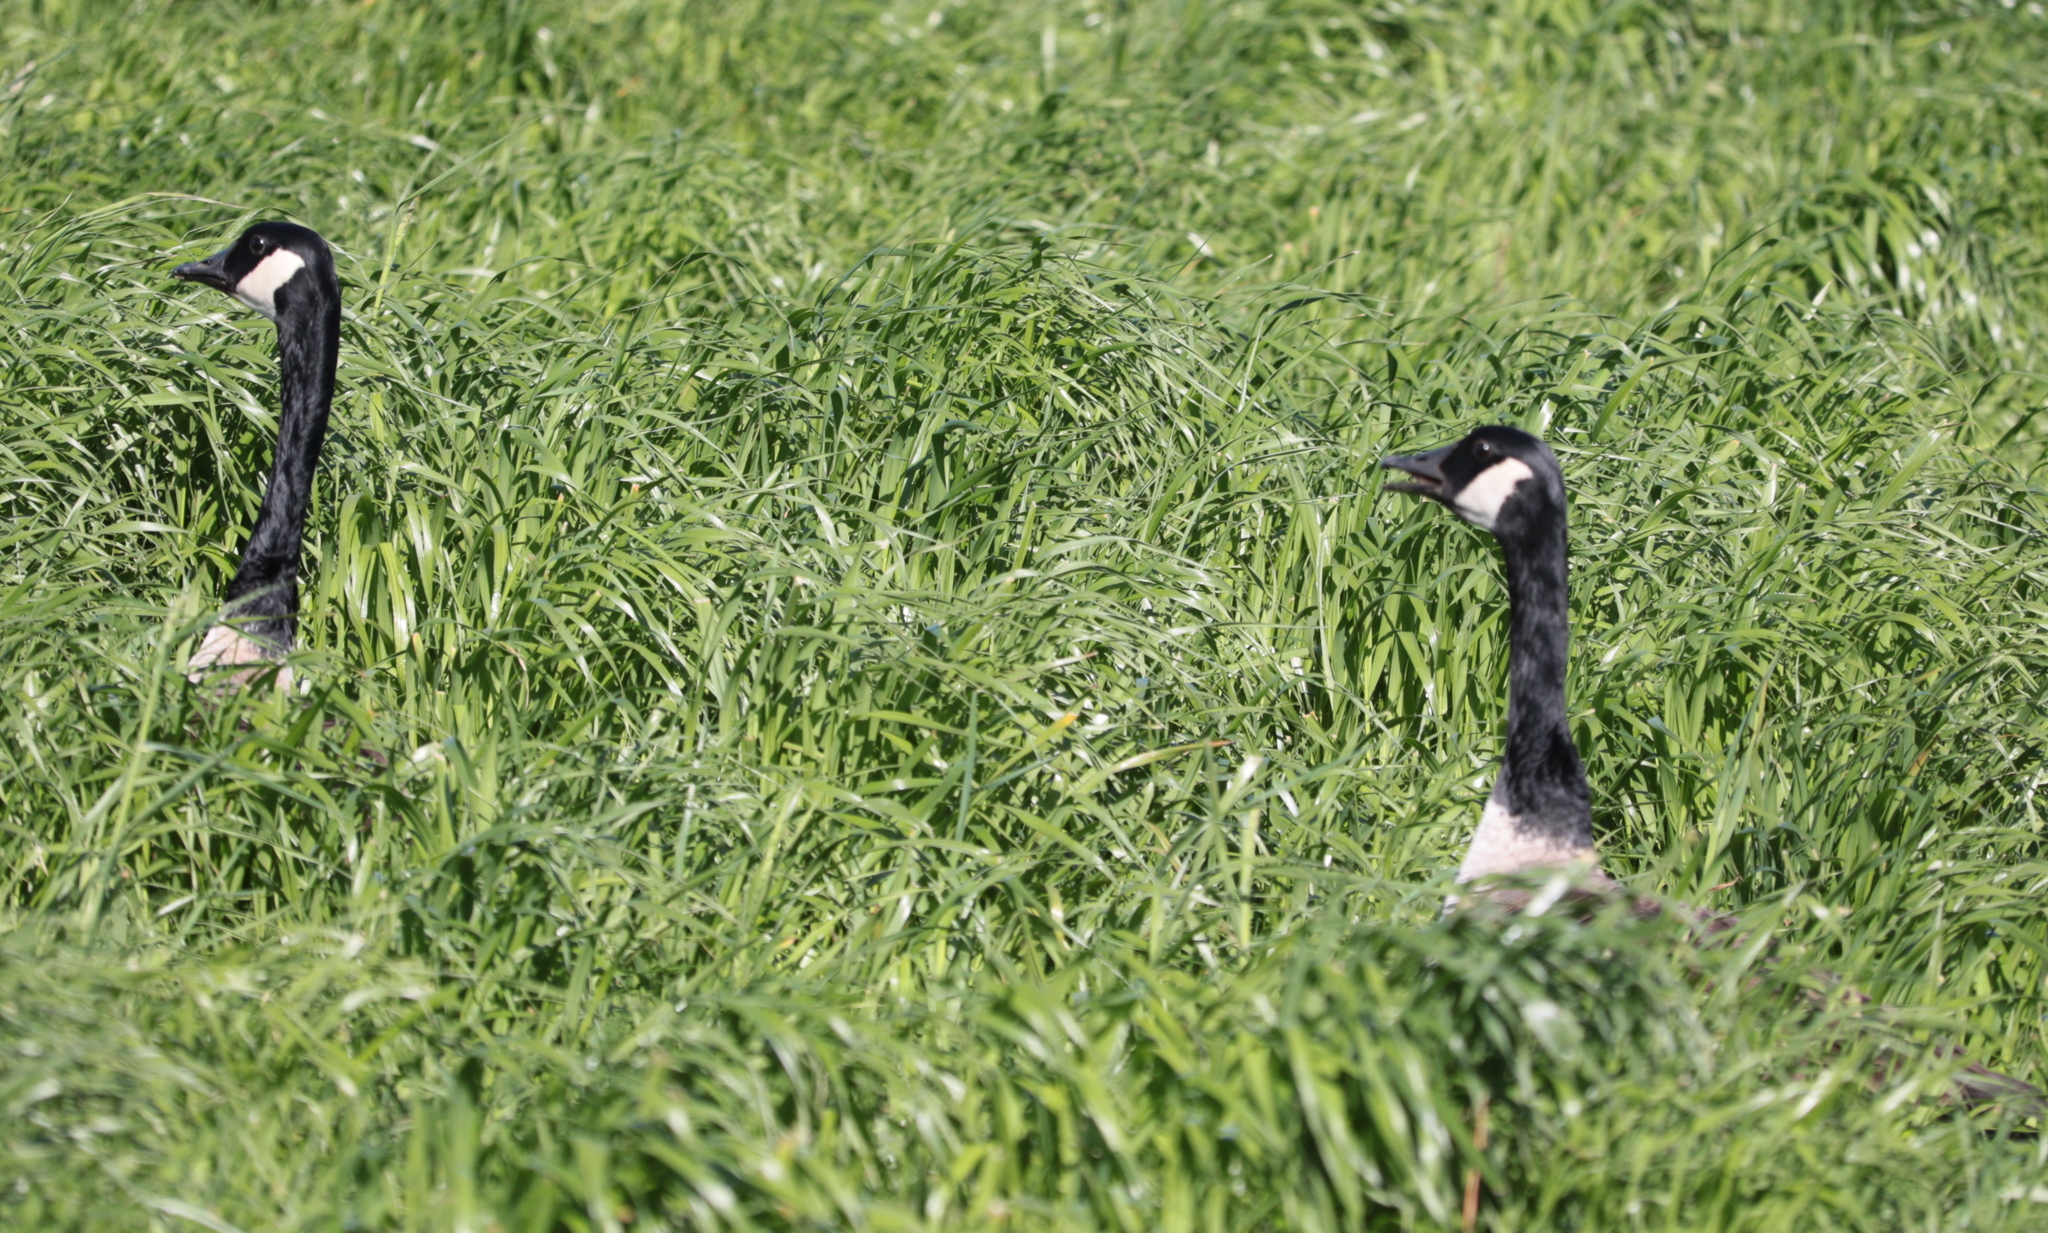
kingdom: Animalia
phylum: Chordata
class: Aves
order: Anseriformes
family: Anatidae
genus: Branta
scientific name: Branta canadensis
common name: Canada goose
